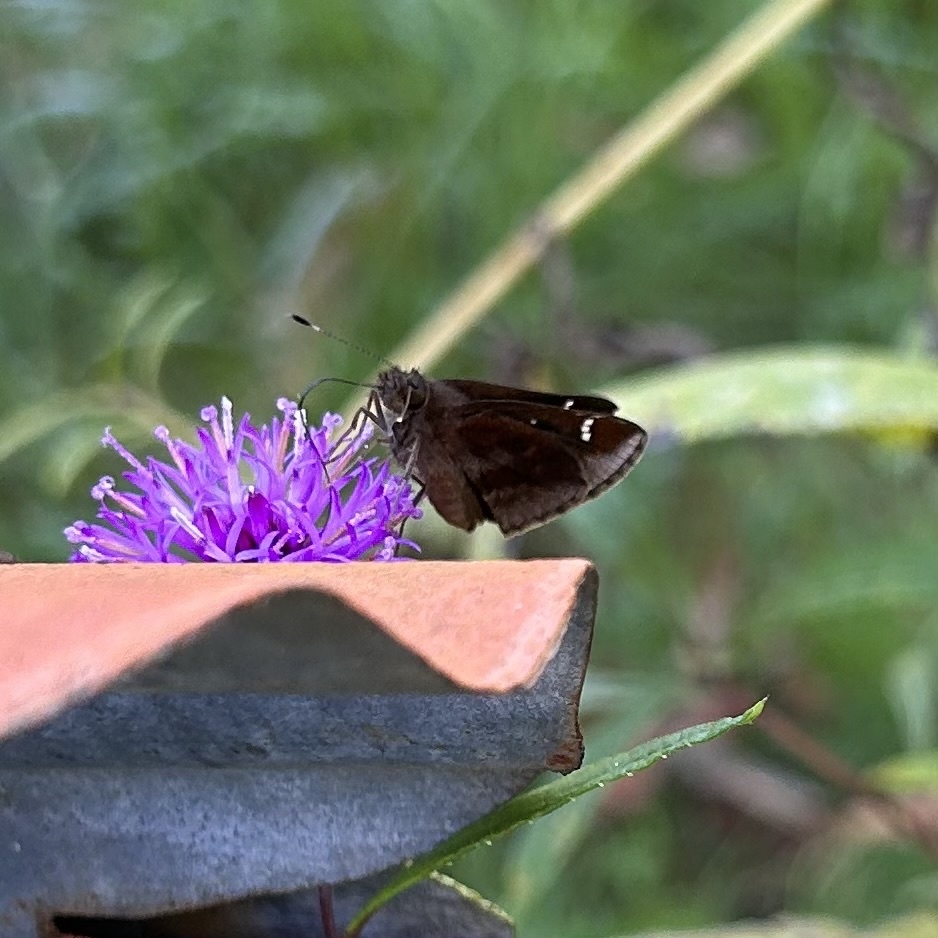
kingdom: Animalia
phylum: Arthropoda
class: Insecta
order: Lepidoptera
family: Hesperiidae
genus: Lerema
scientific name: Lerema accius
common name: Clouded skipper
